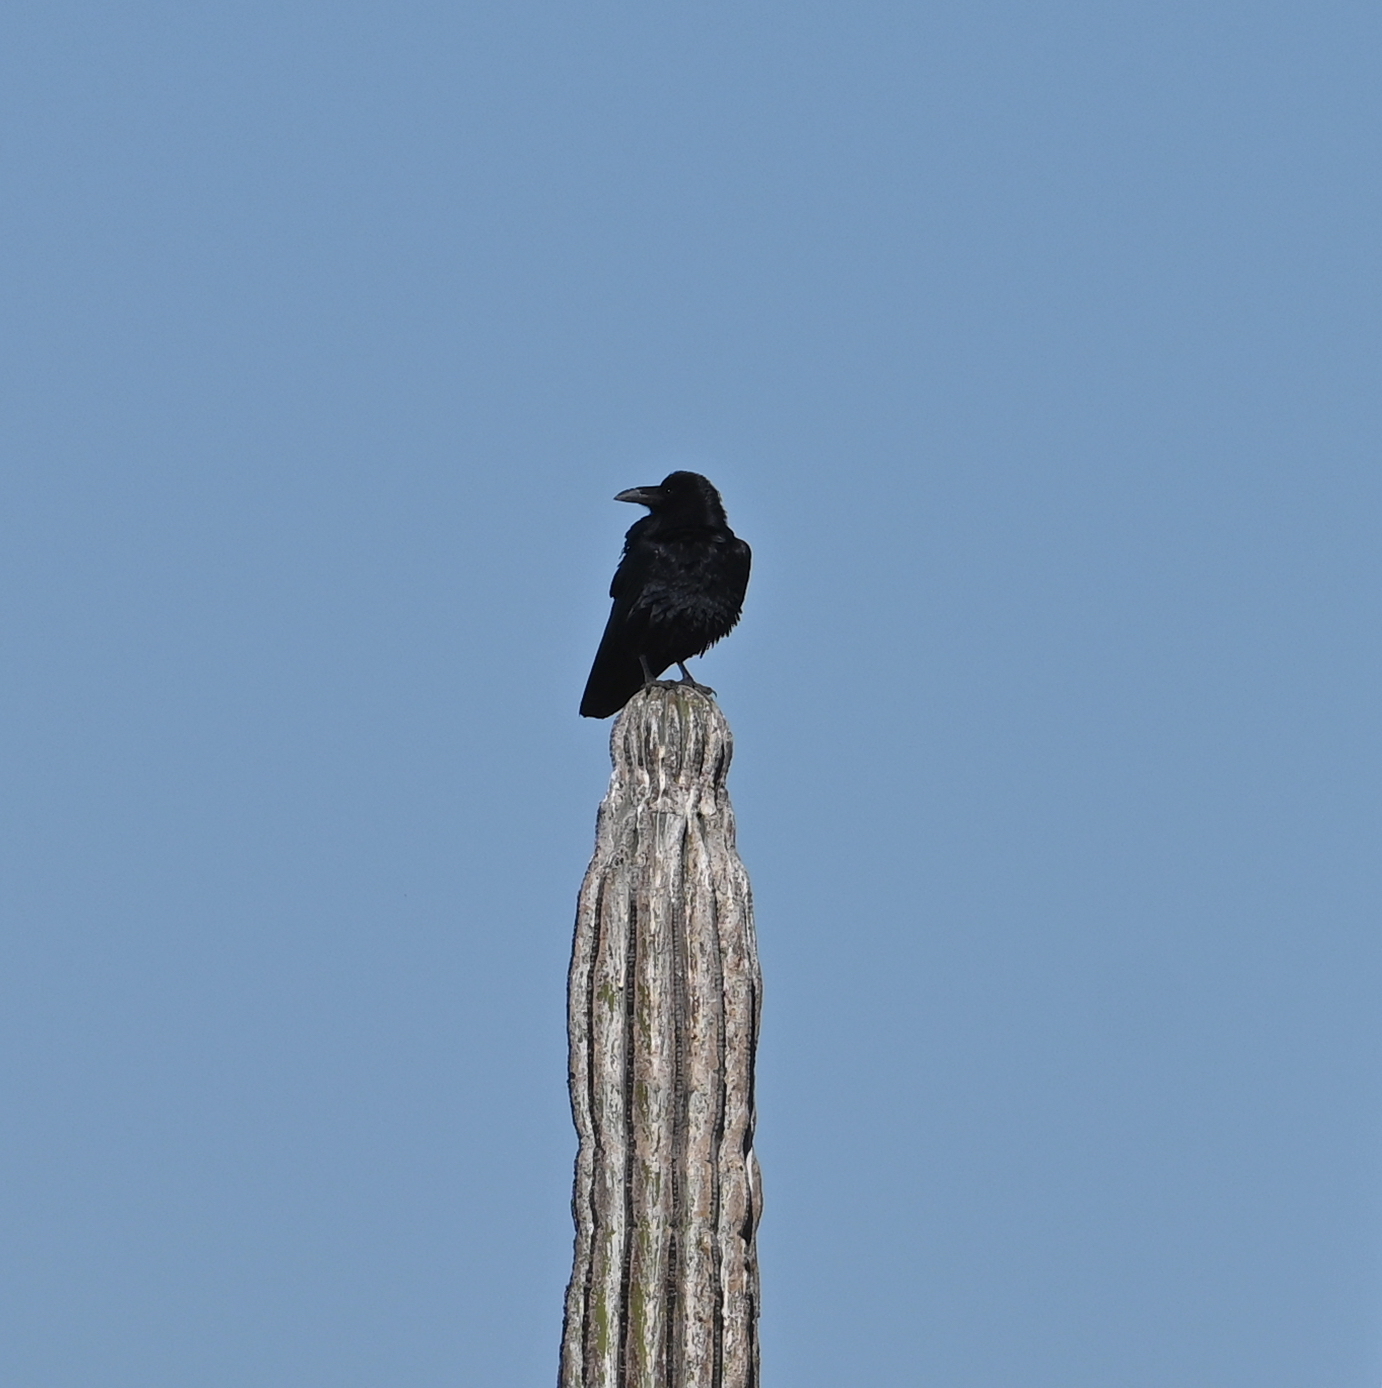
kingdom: Animalia
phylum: Chordata
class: Aves
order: Passeriformes
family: Corvidae
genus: Corvus
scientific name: Corvus corax
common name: Common raven
